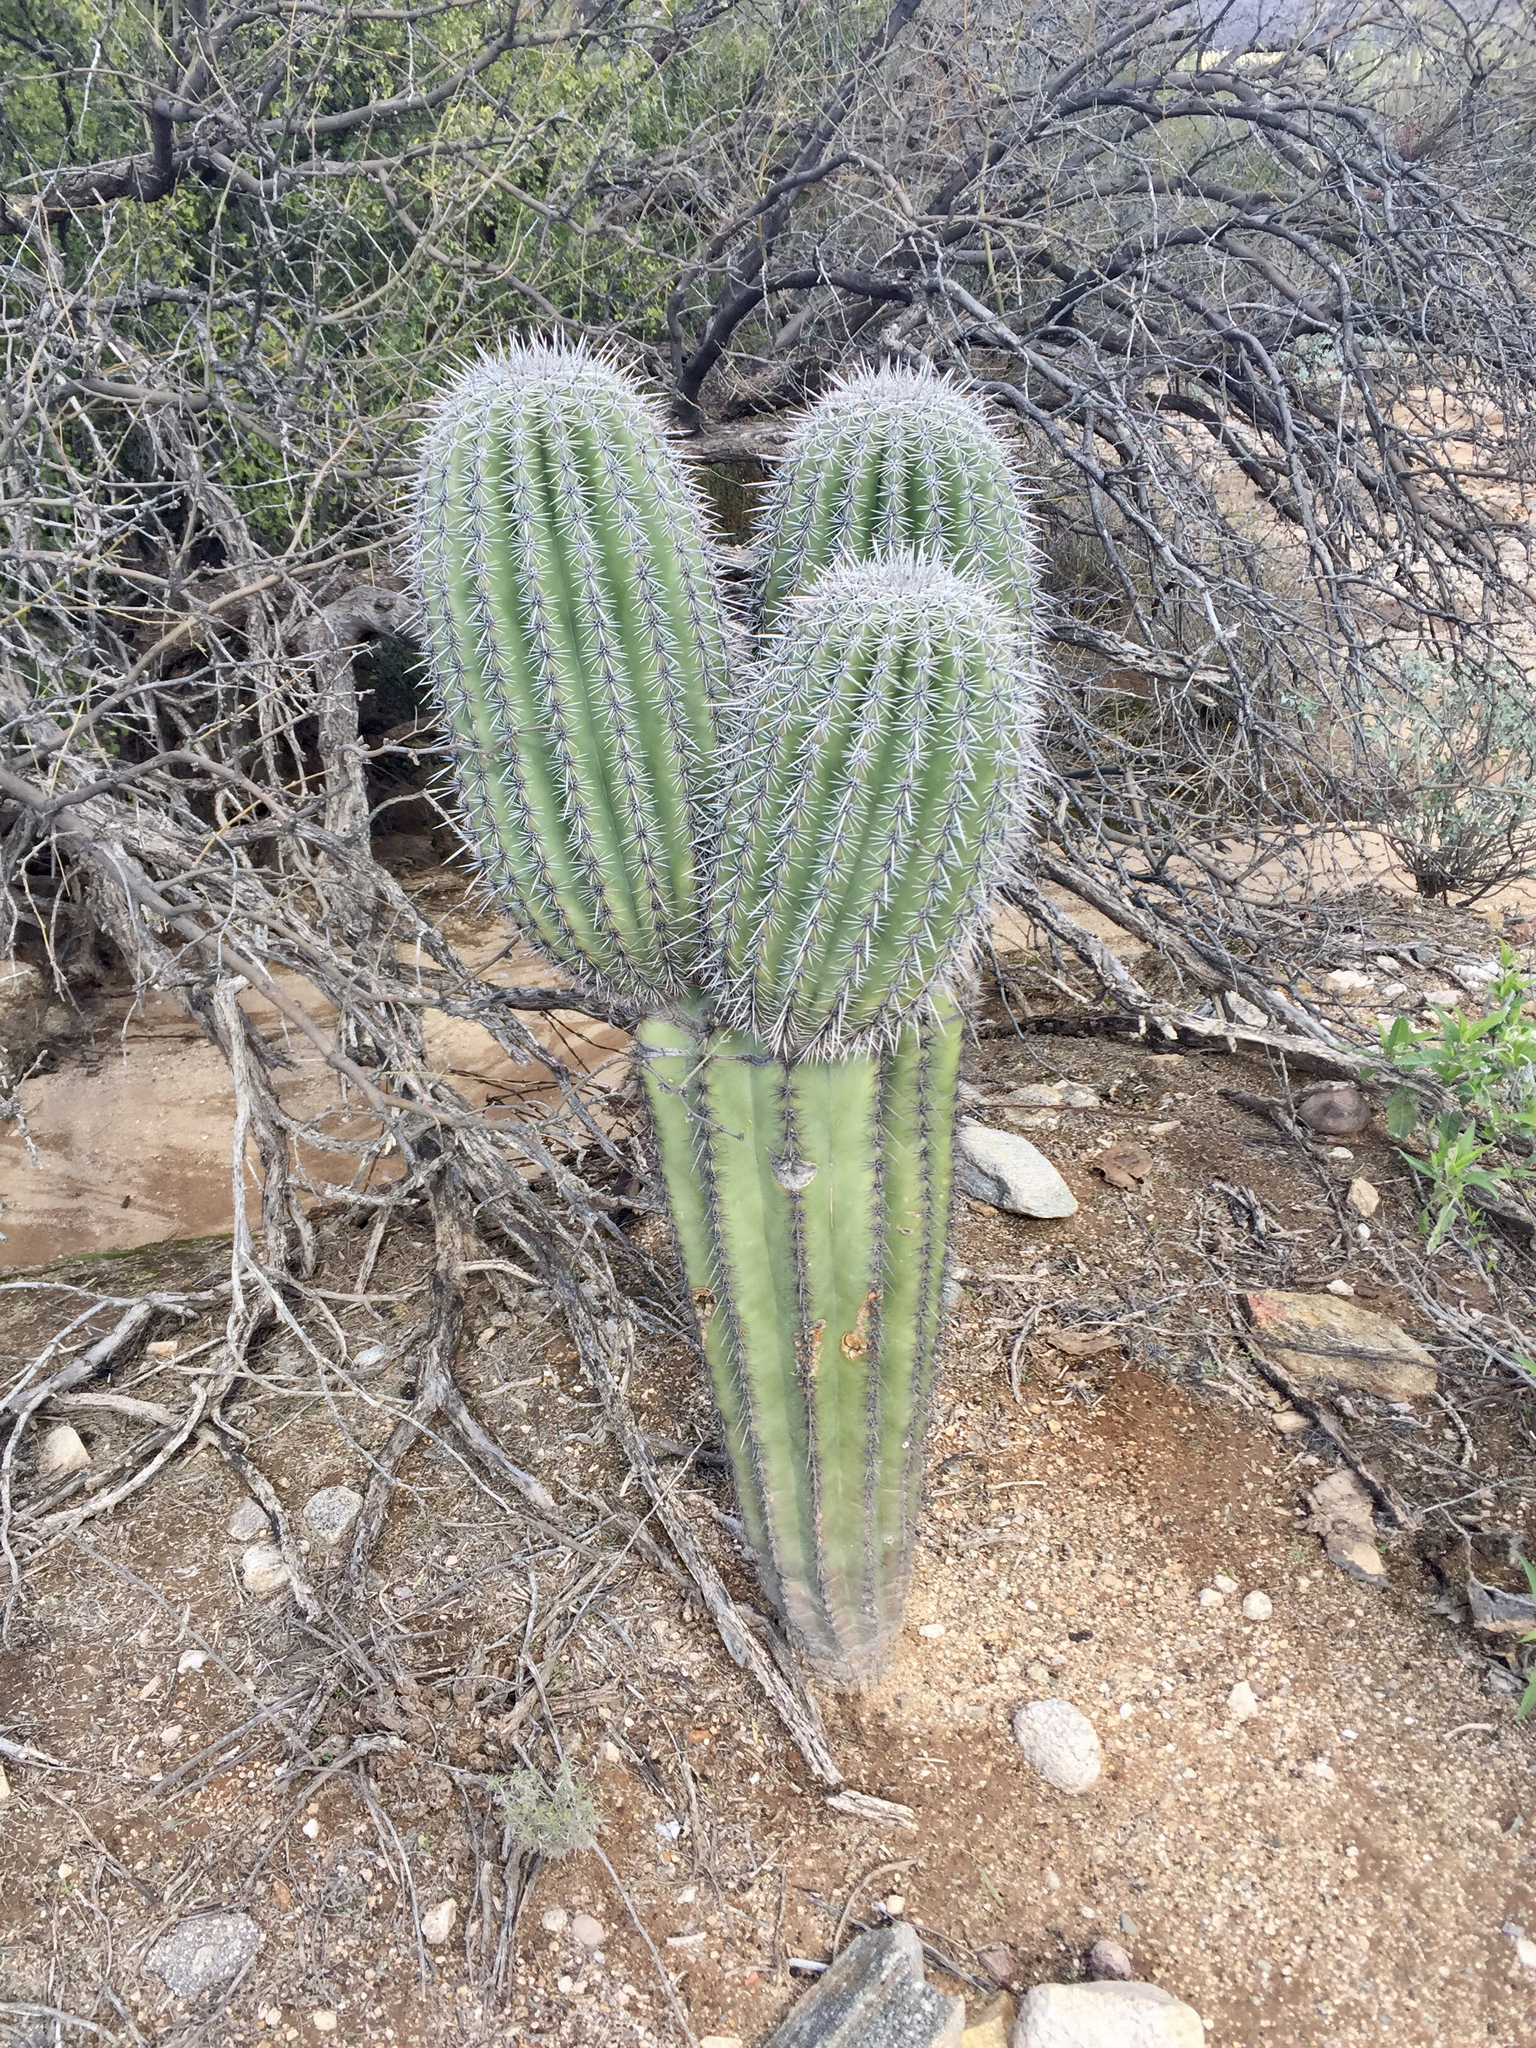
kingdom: Plantae
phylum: Tracheophyta
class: Magnoliopsida
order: Caryophyllales
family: Cactaceae
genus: Carnegiea
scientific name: Carnegiea gigantea
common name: Saguaro
